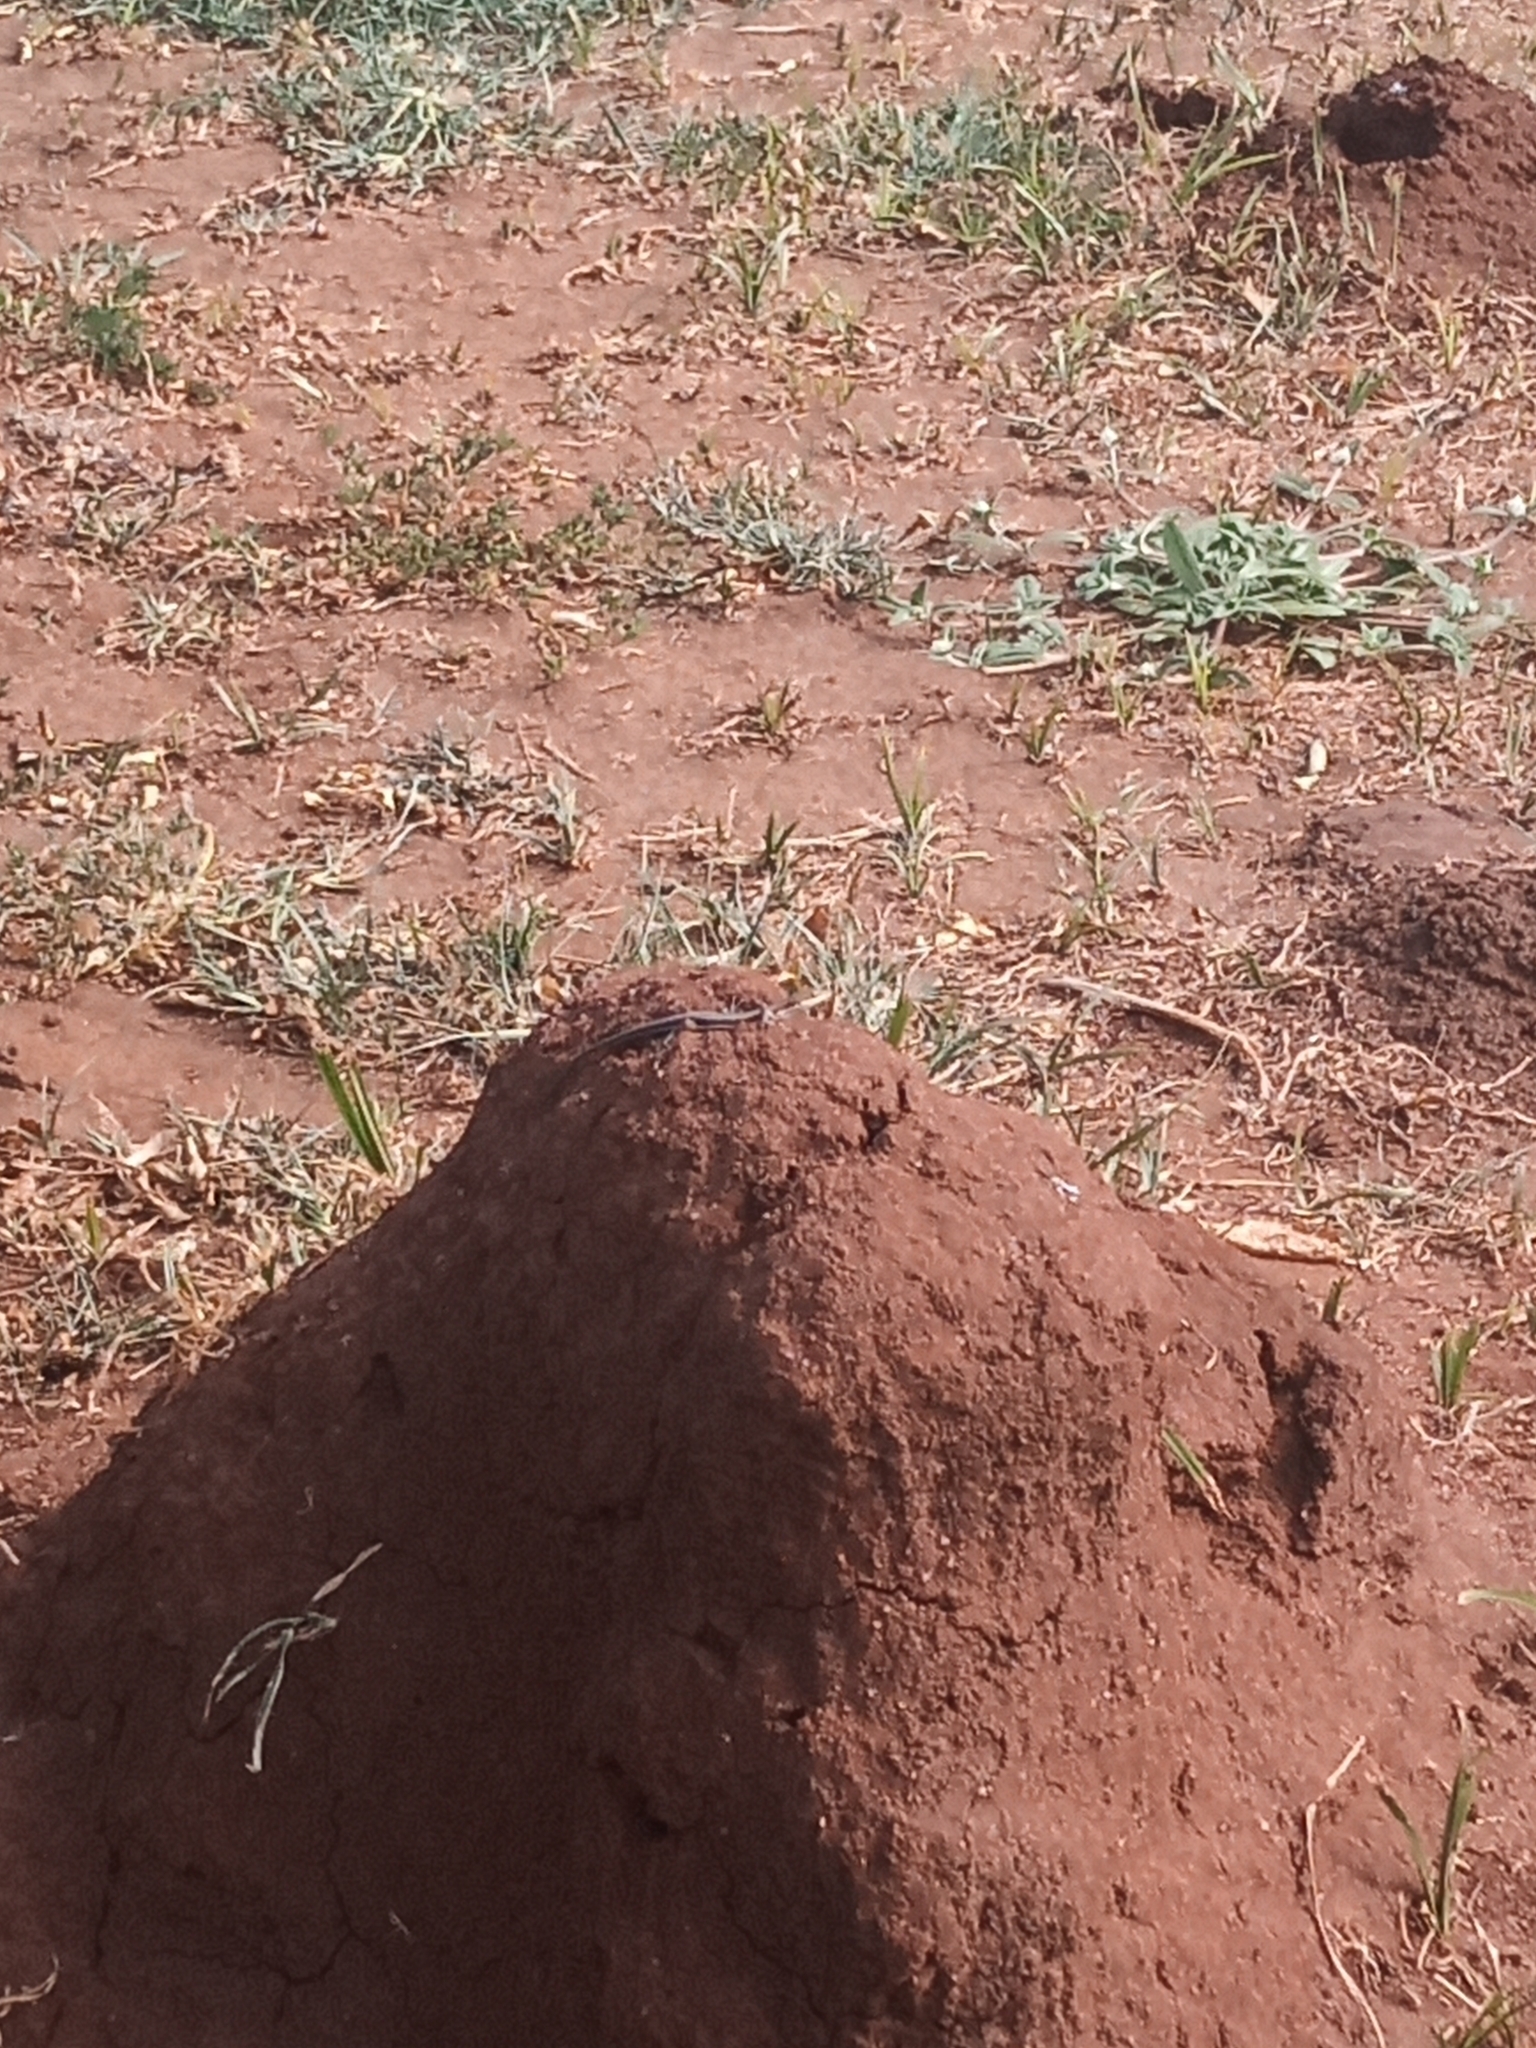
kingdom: Animalia
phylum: Chordata
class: Squamata
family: Scincidae
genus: Trachylepis
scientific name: Trachylepis varia
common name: Eastern variable skink
